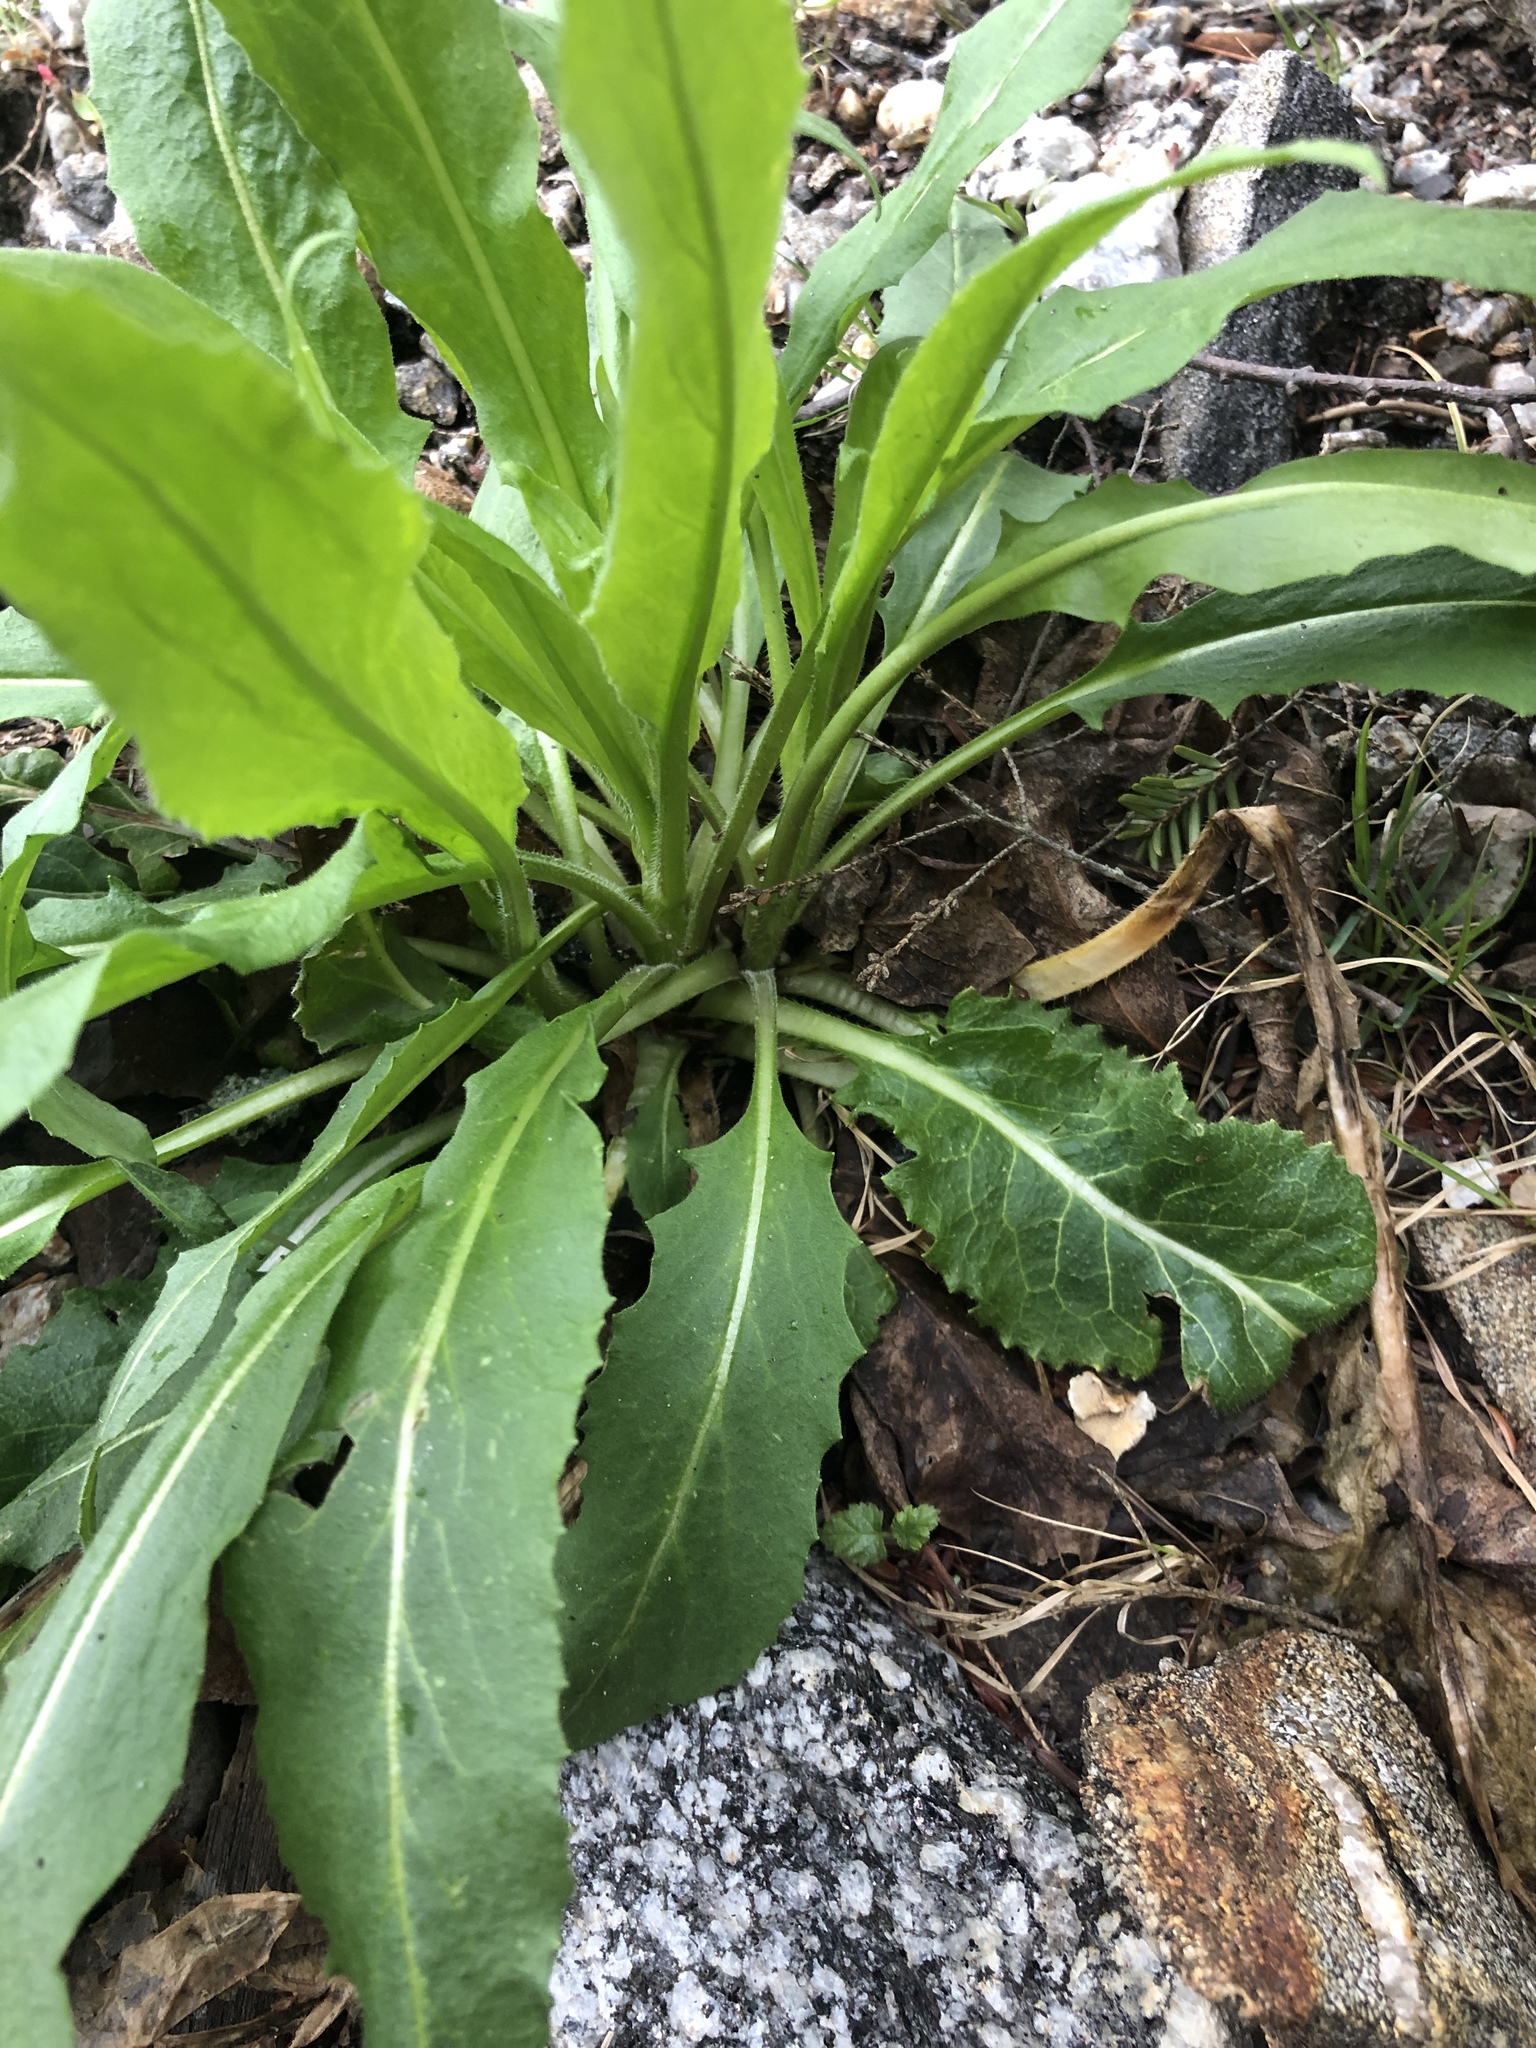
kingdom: Plantae
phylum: Tracheophyta
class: Magnoliopsida
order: Brassicales
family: Brassicaceae
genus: Hesperis
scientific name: Hesperis matronalis
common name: Dame's-violet
